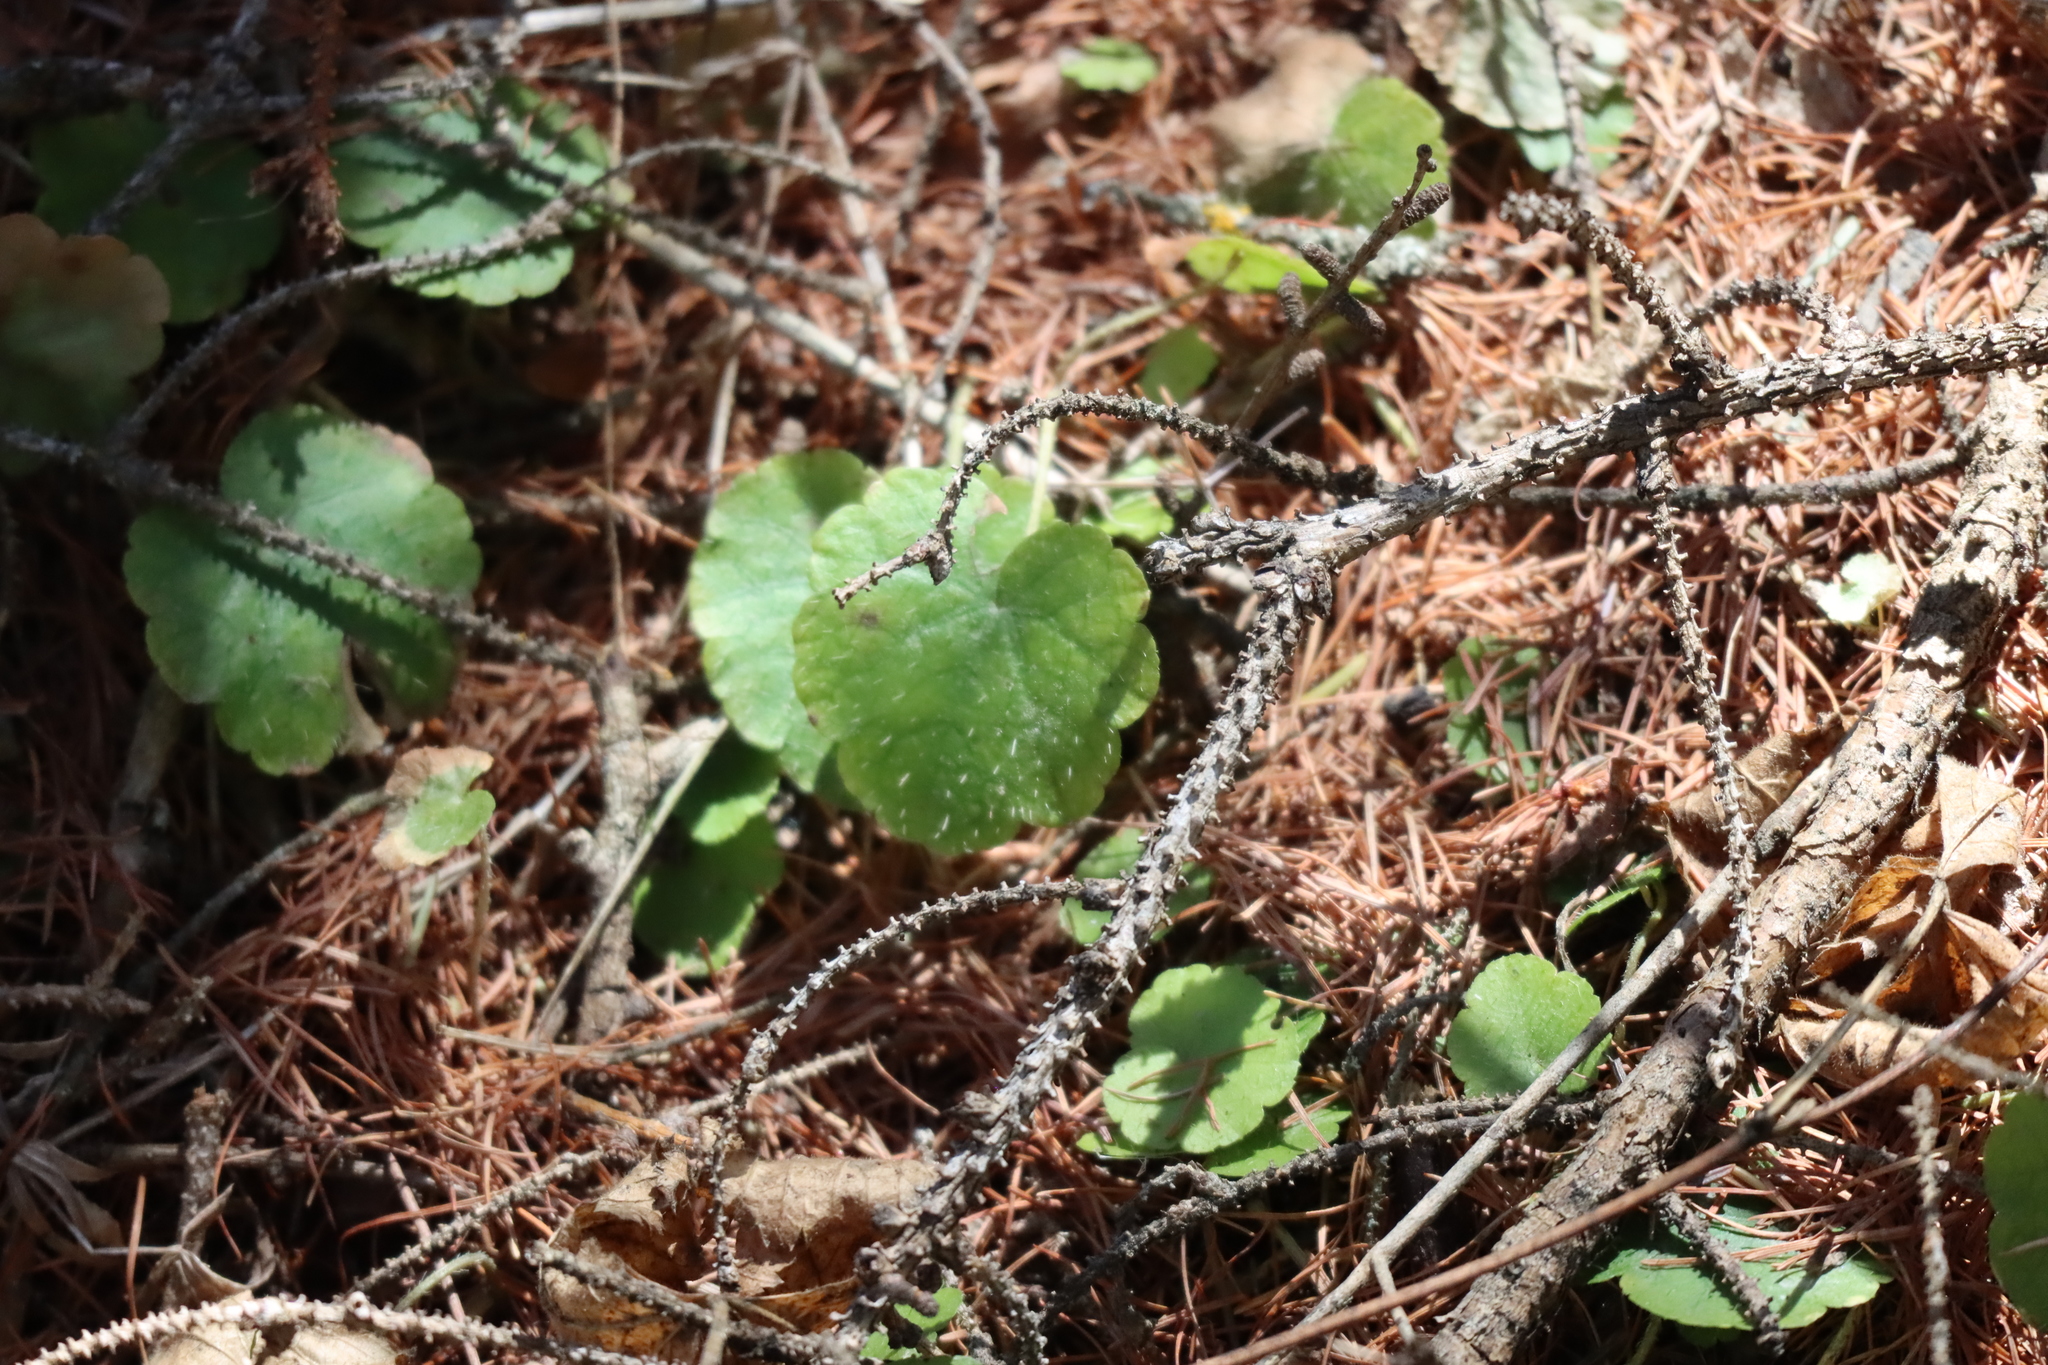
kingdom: Plantae
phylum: Tracheophyta
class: Magnoliopsida
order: Saxifragales
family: Saxifragaceae
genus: Mitella
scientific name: Mitella nuda
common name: Bare-stemmed bishop's-cap
